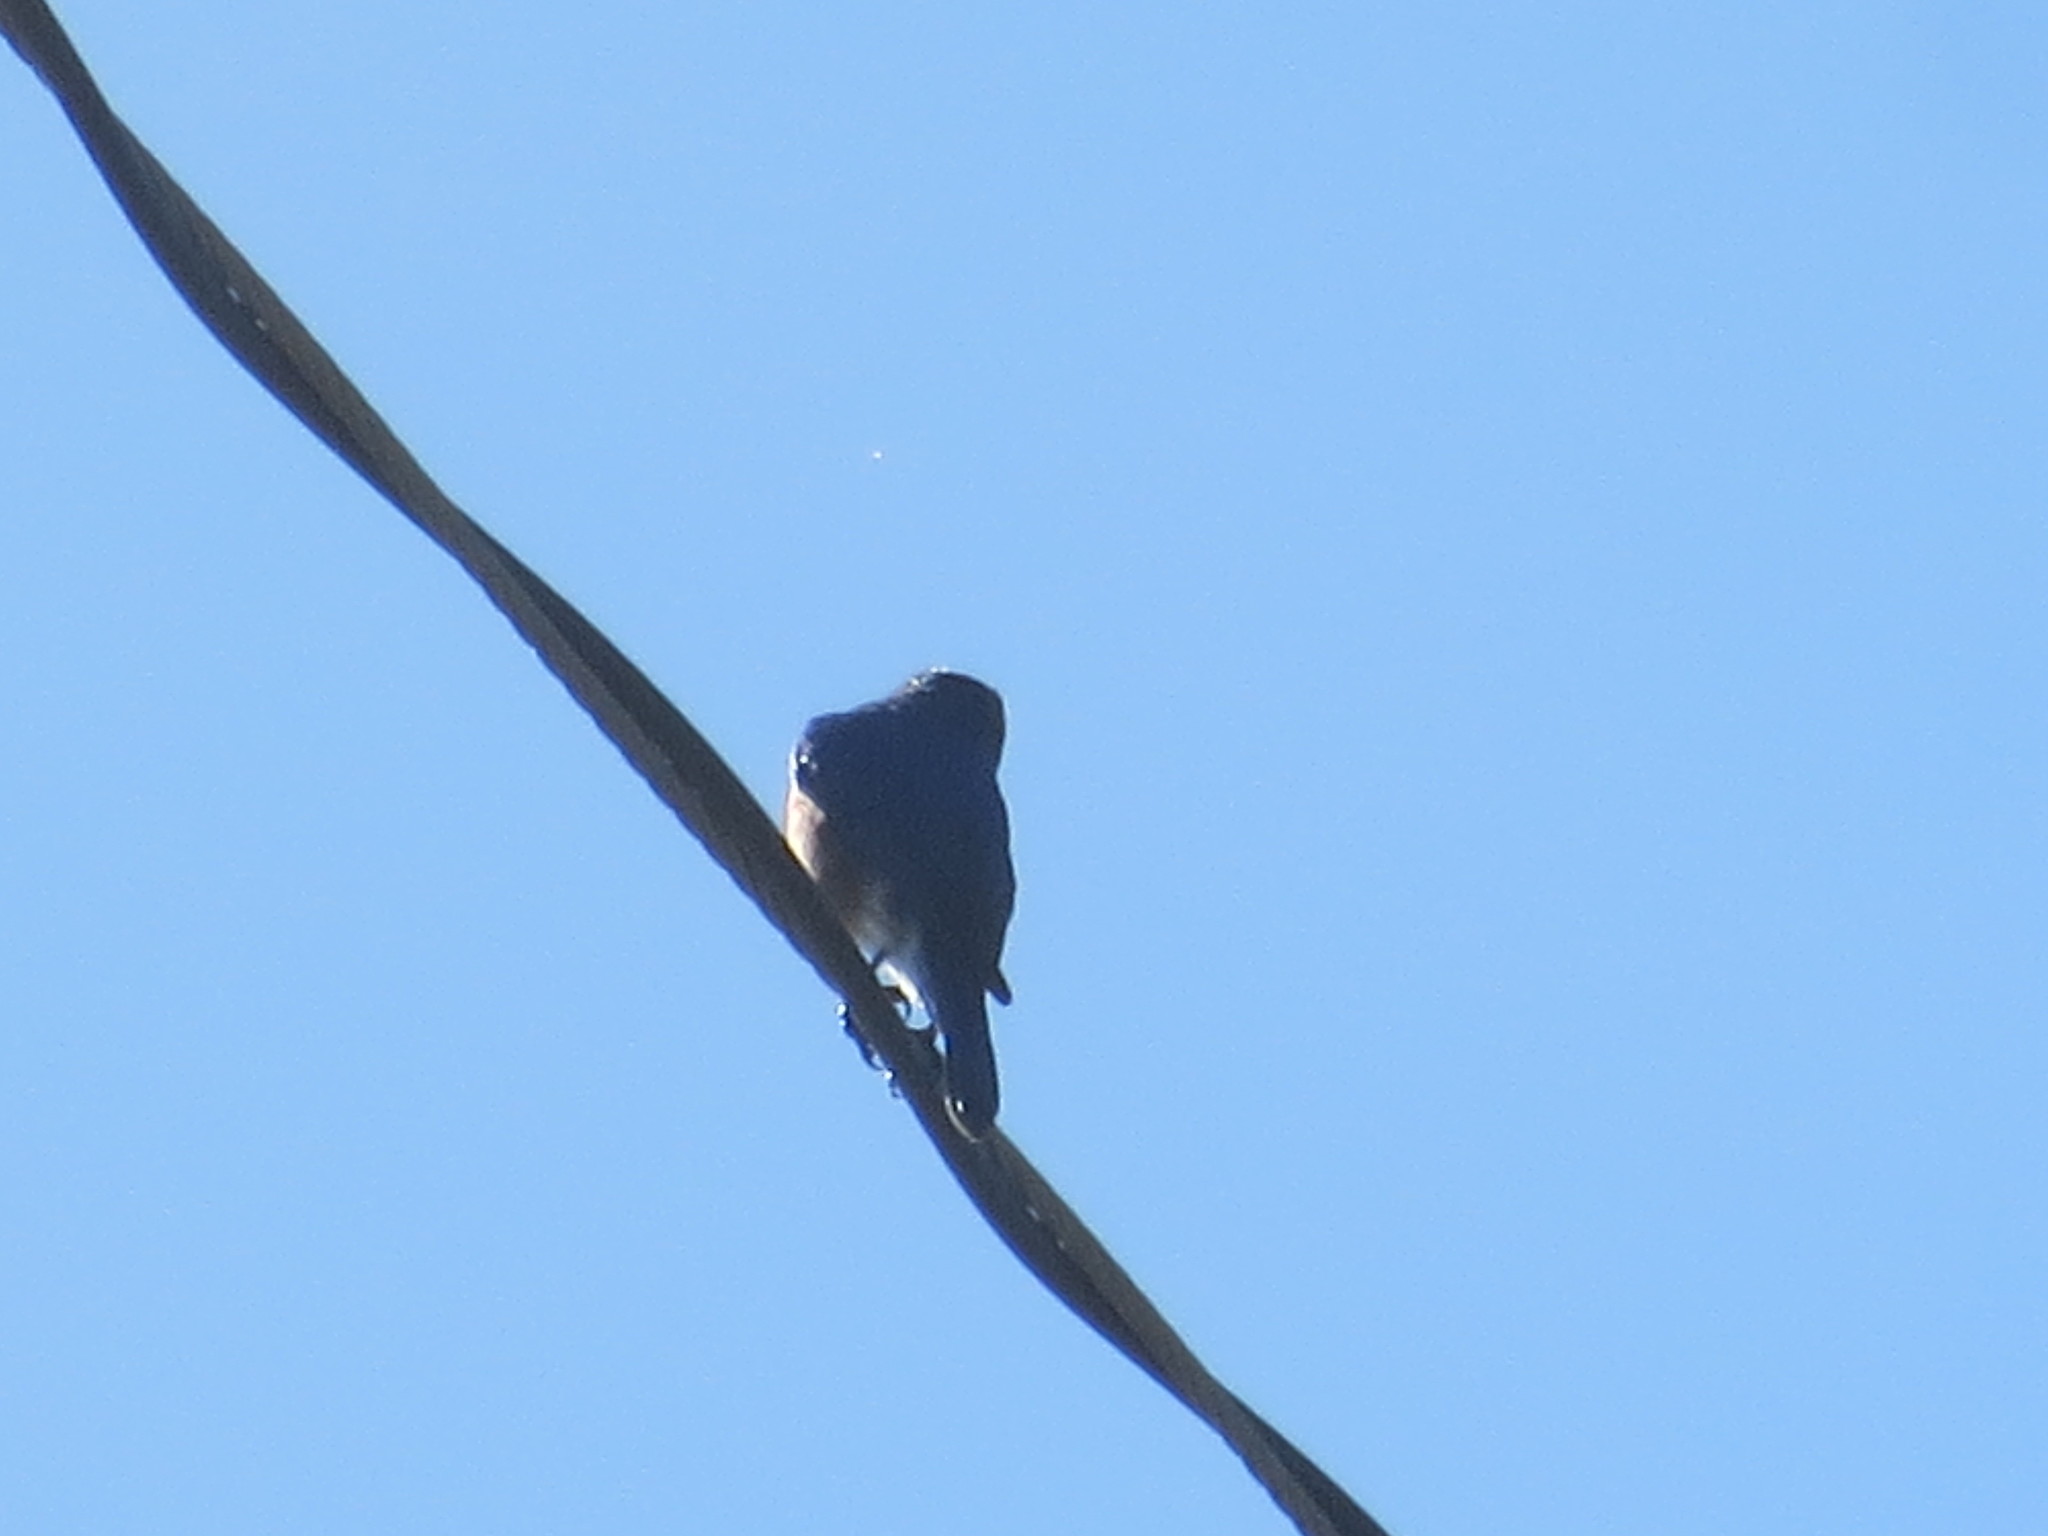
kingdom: Animalia
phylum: Chordata
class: Aves
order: Passeriformes
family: Turdidae
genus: Sialia
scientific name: Sialia sialis
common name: Eastern bluebird
